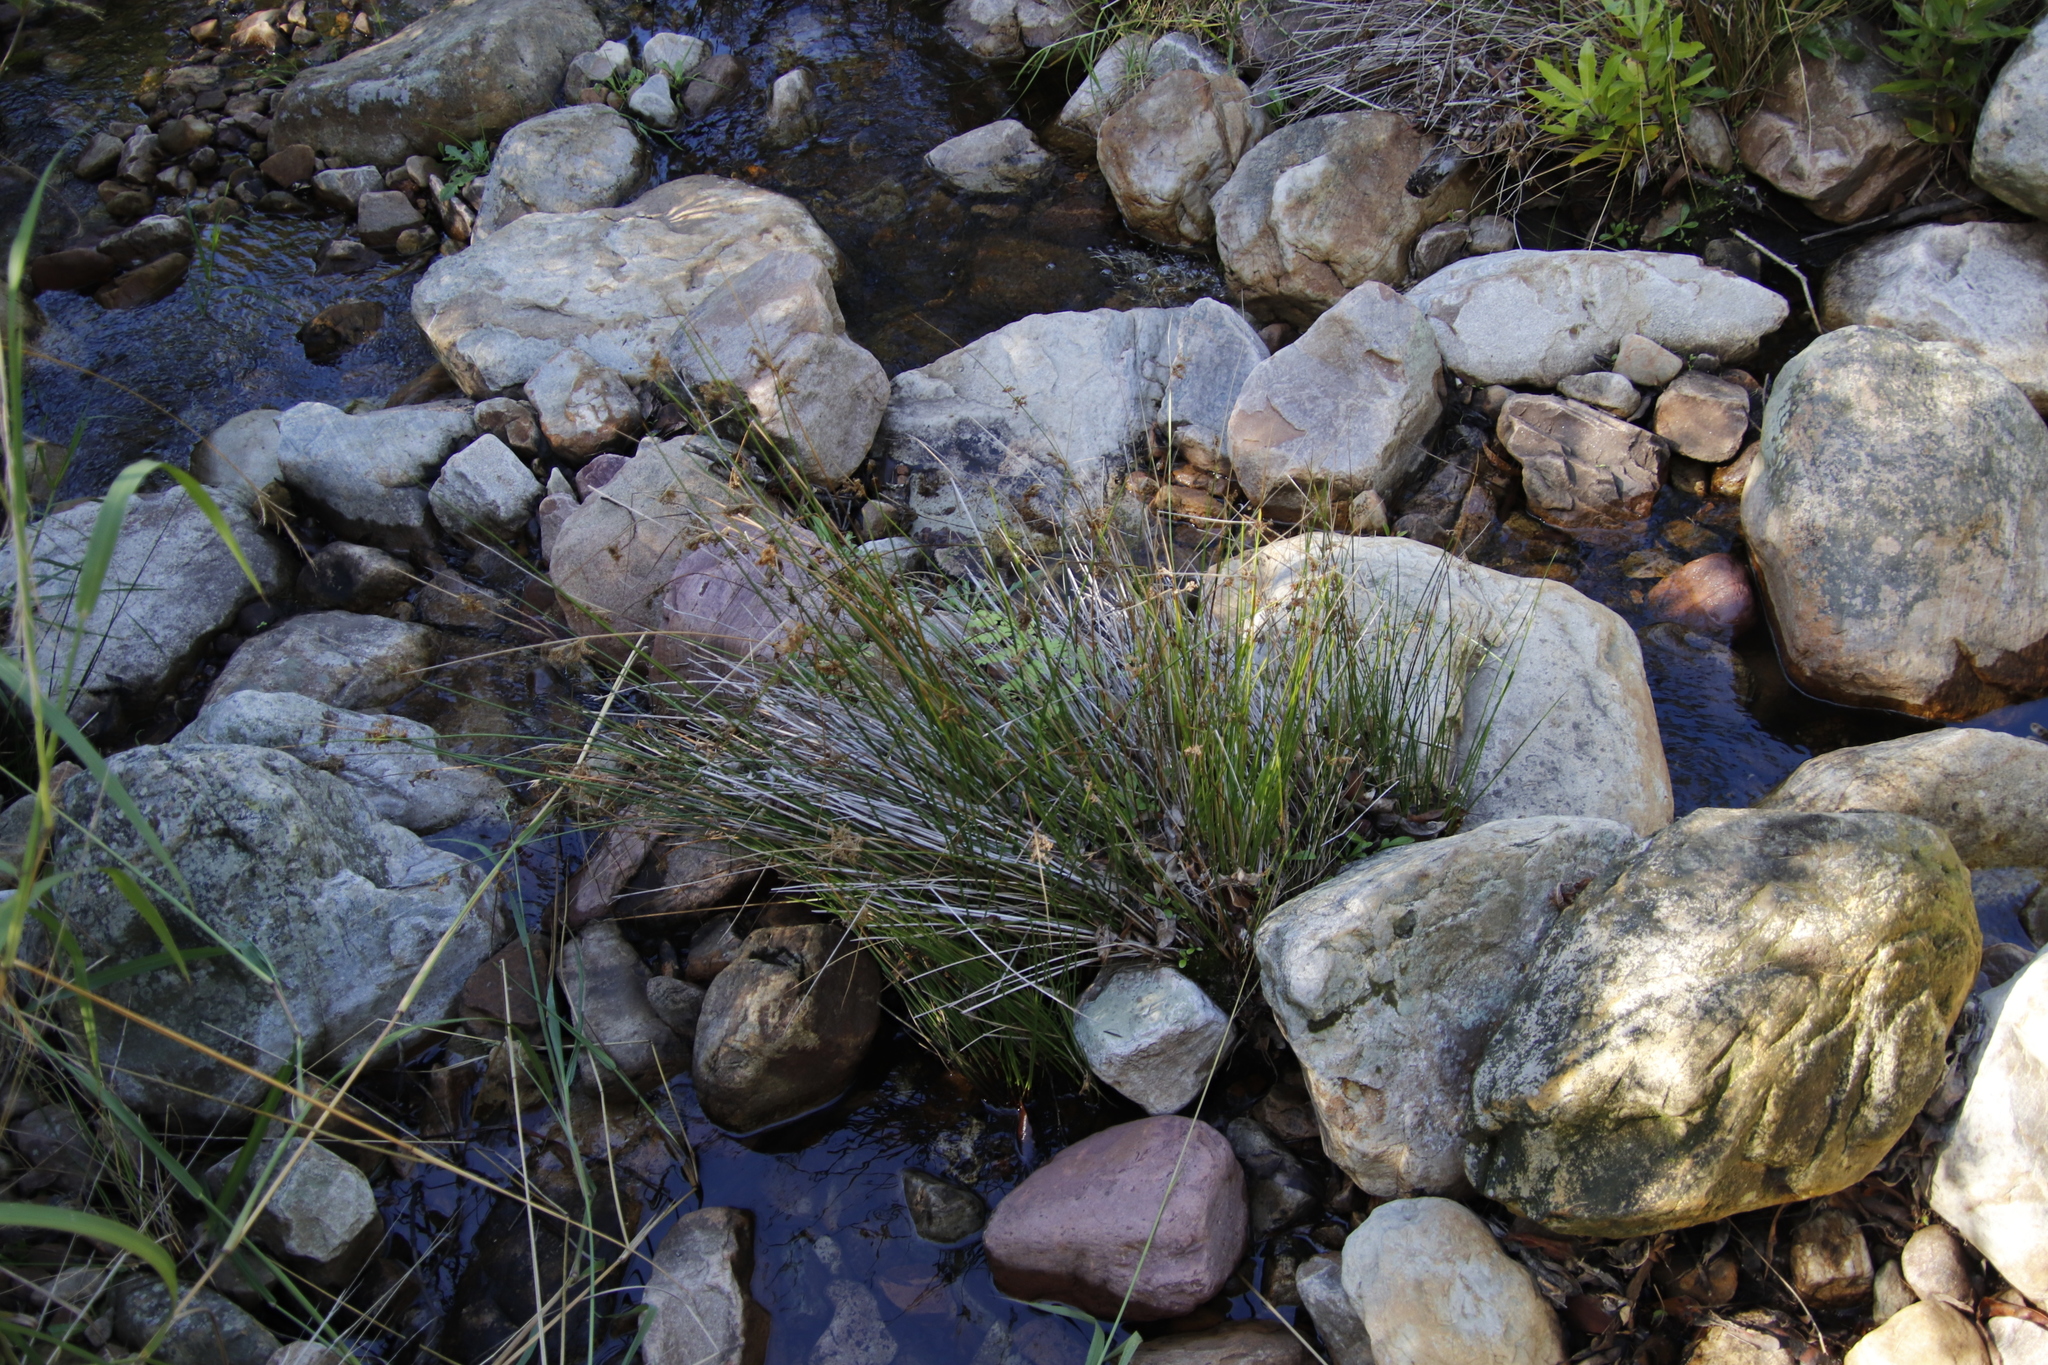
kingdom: Plantae
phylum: Tracheophyta
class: Liliopsida
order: Poales
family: Juncaceae
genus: Juncus
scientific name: Juncus effusus
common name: Soft rush
